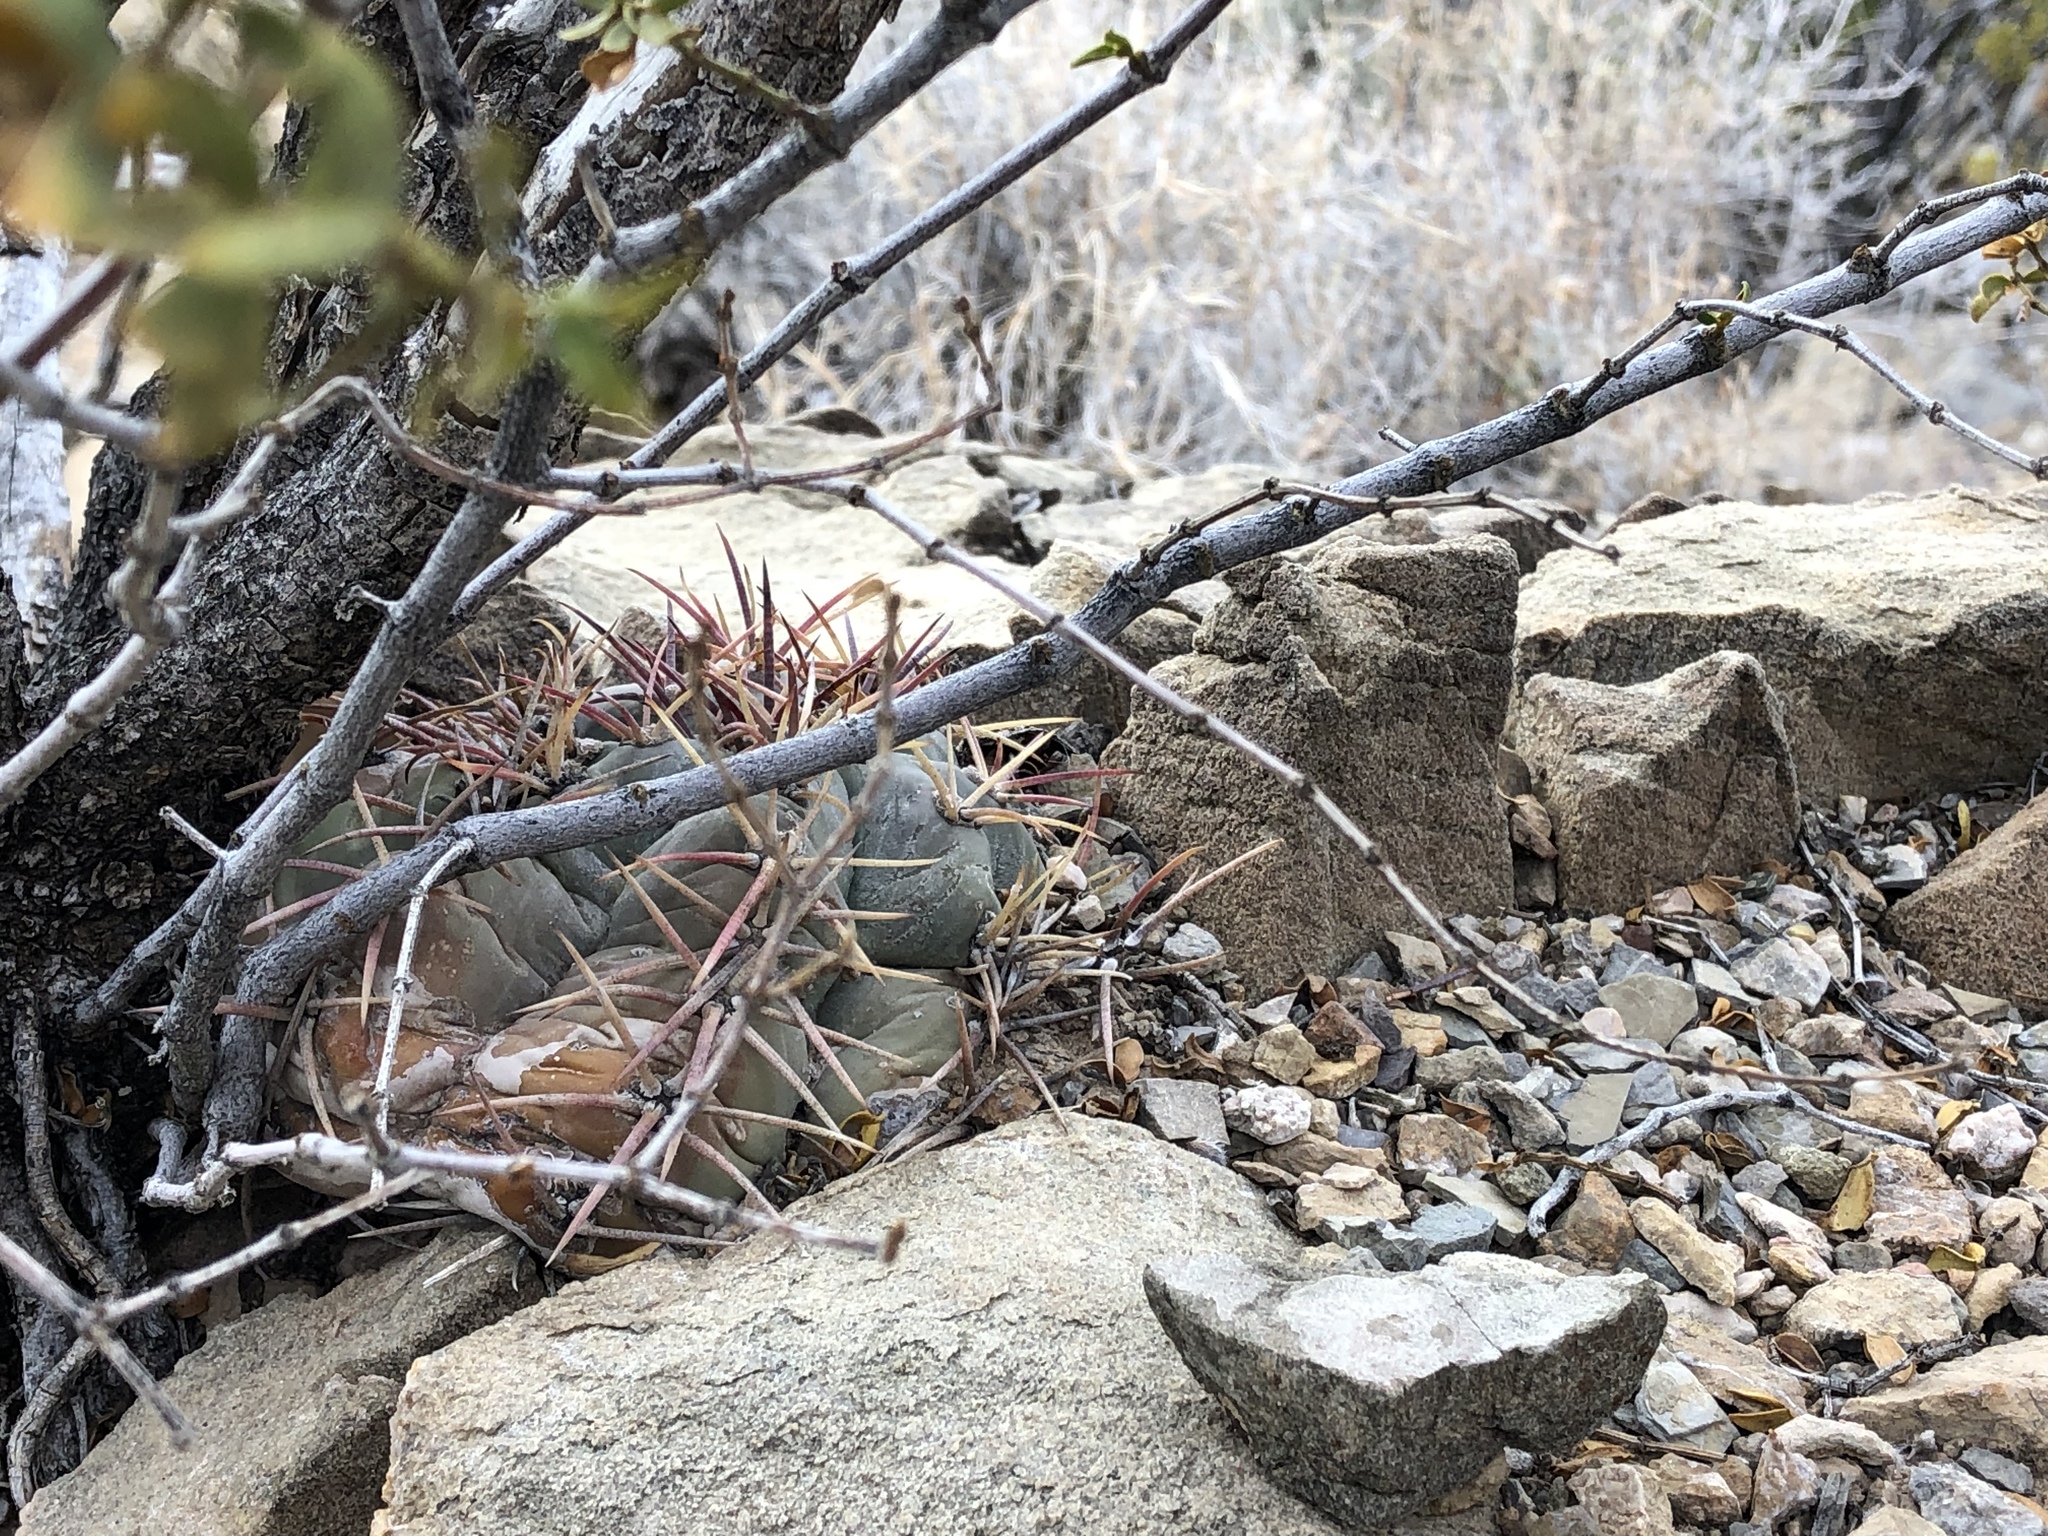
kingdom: Plantae
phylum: Tracheophyta
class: Magnoliopsida
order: Caryophyllales
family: Cactaceae
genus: Echinocactus
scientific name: Echinocactus horizonthalonius
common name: Devilshead
